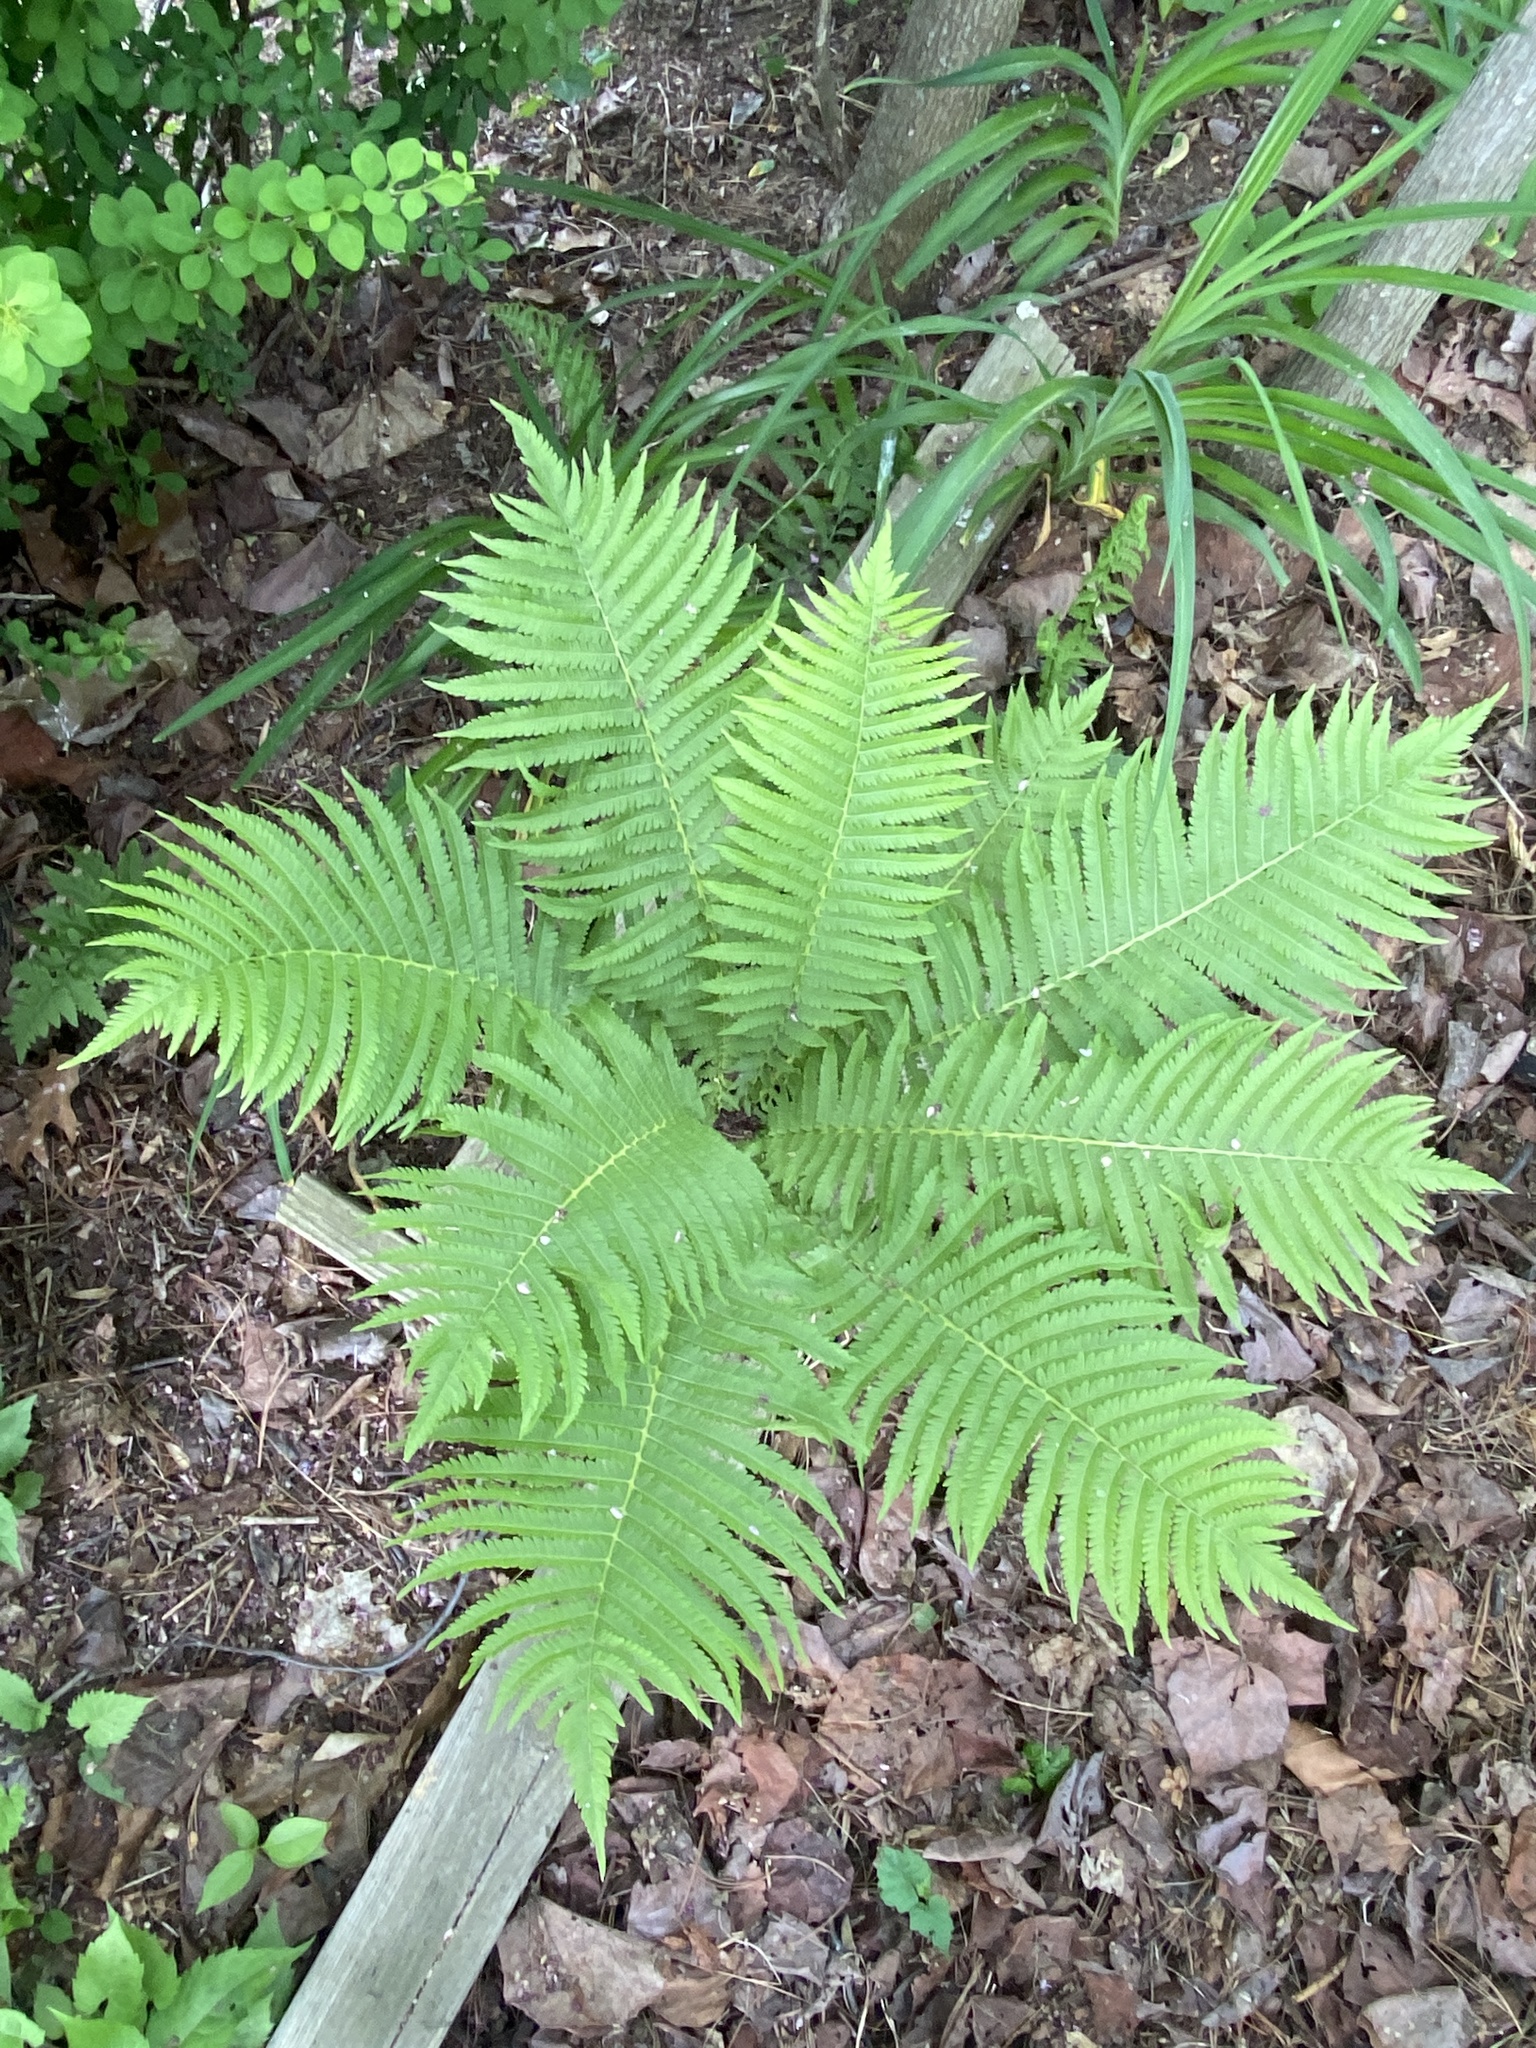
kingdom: Plantae
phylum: Tracheophyta
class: Polypodiopsida
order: Polypodiales
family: Onocleaceae
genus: Matteuccia
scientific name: Matteuccia struthiopteris
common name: Ostrich fern
